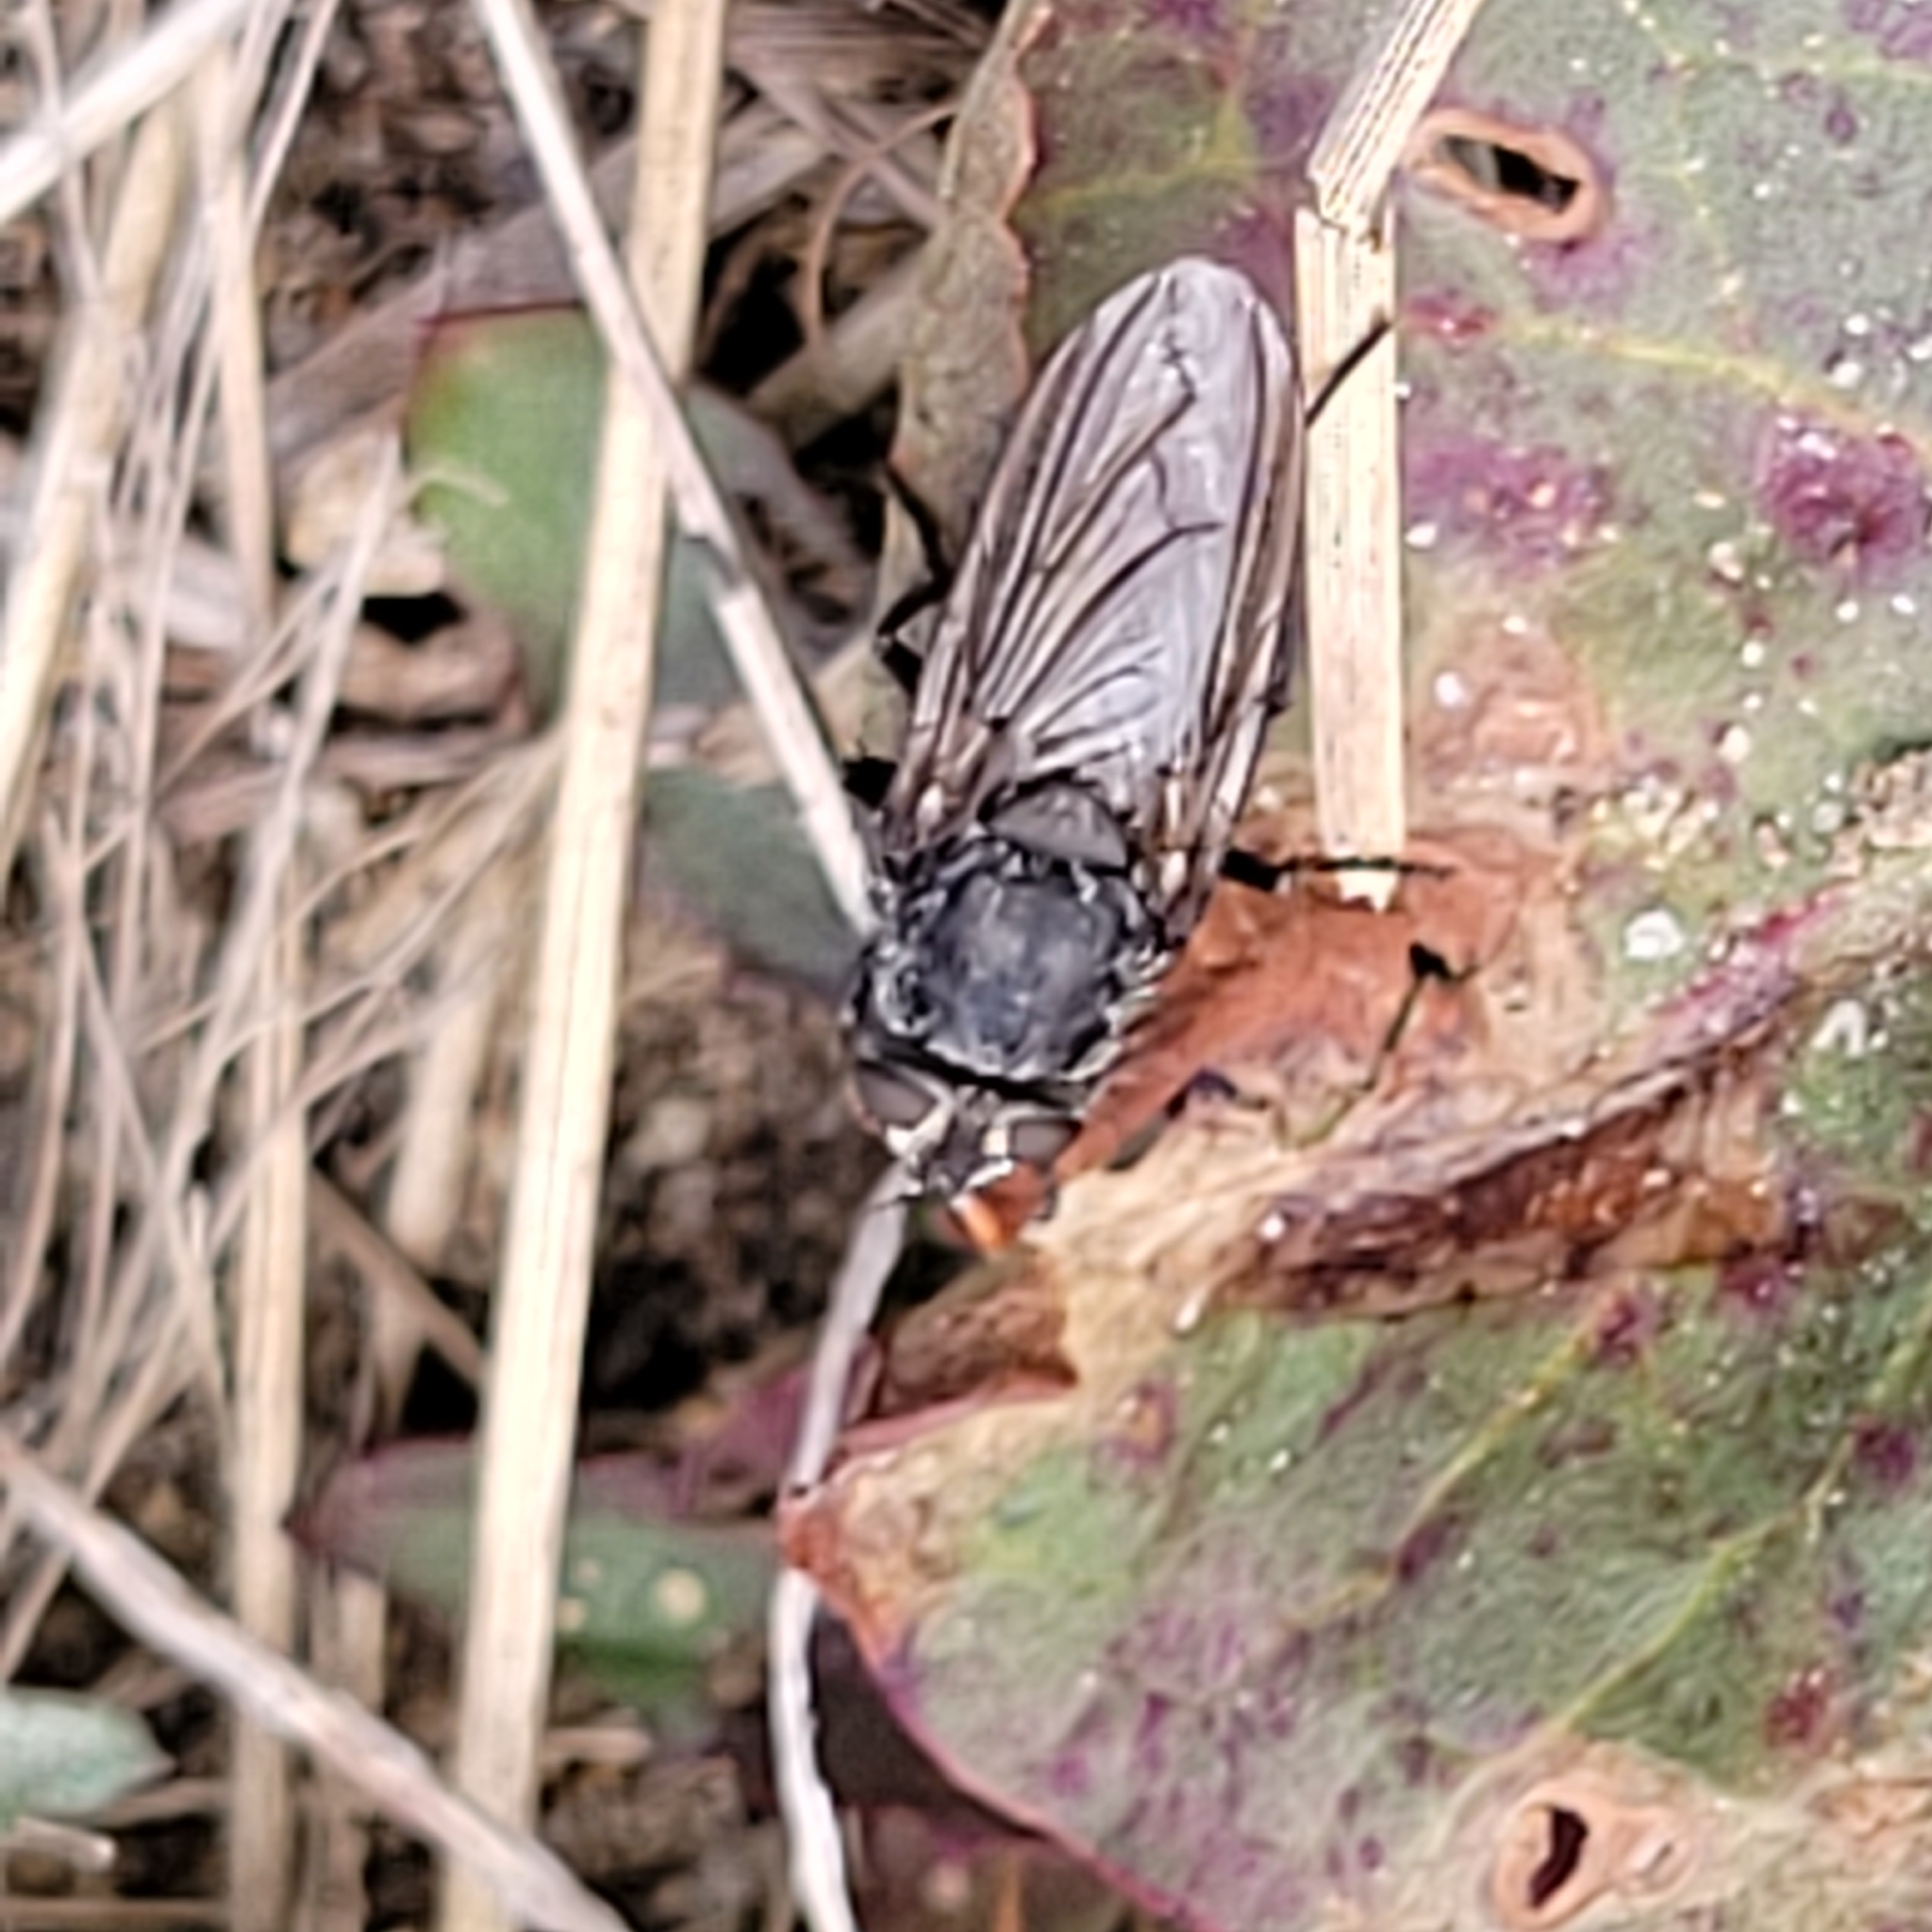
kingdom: Animalia
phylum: Arthropoda
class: Insecta
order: Diptera
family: Polleniidae
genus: Pollenia
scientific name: Pollenia
